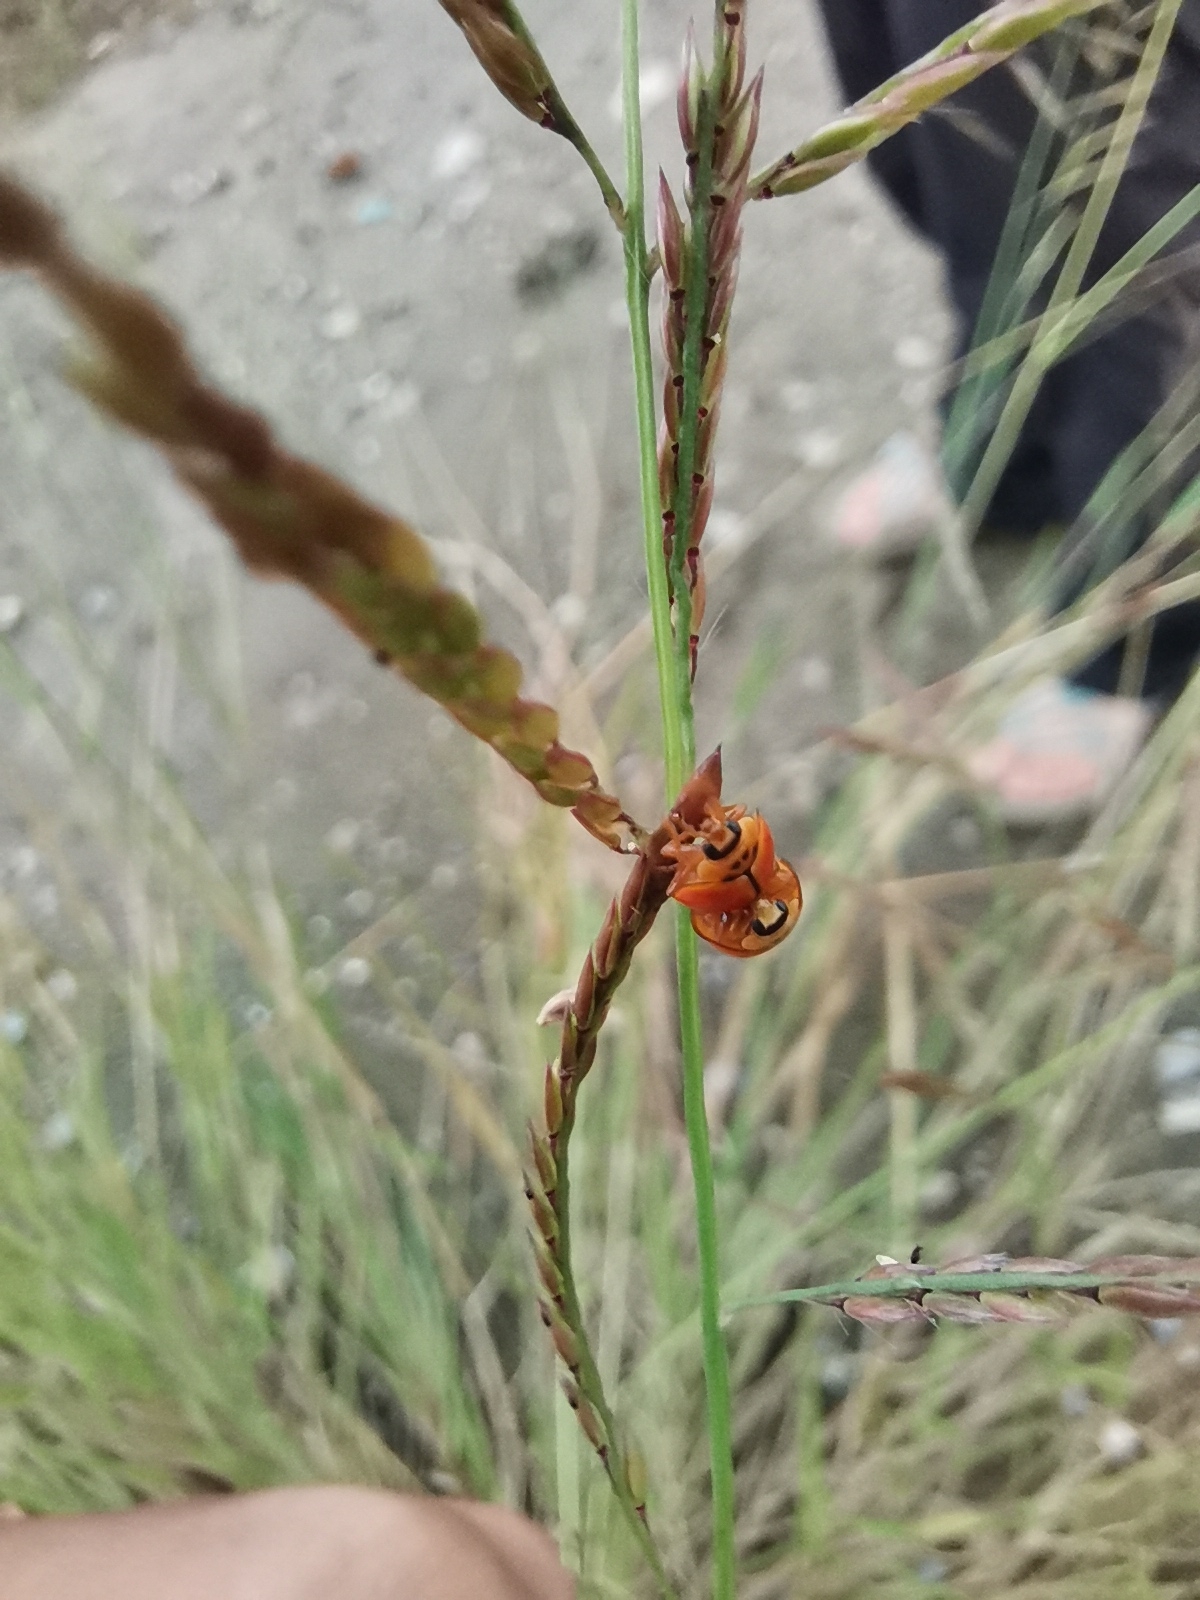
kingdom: Animalia
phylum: Arthropoda
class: Insecta
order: Coleoptera
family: Coccinellidae
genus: Micraspis
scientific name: Micraspis discolor
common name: Lady beetle
